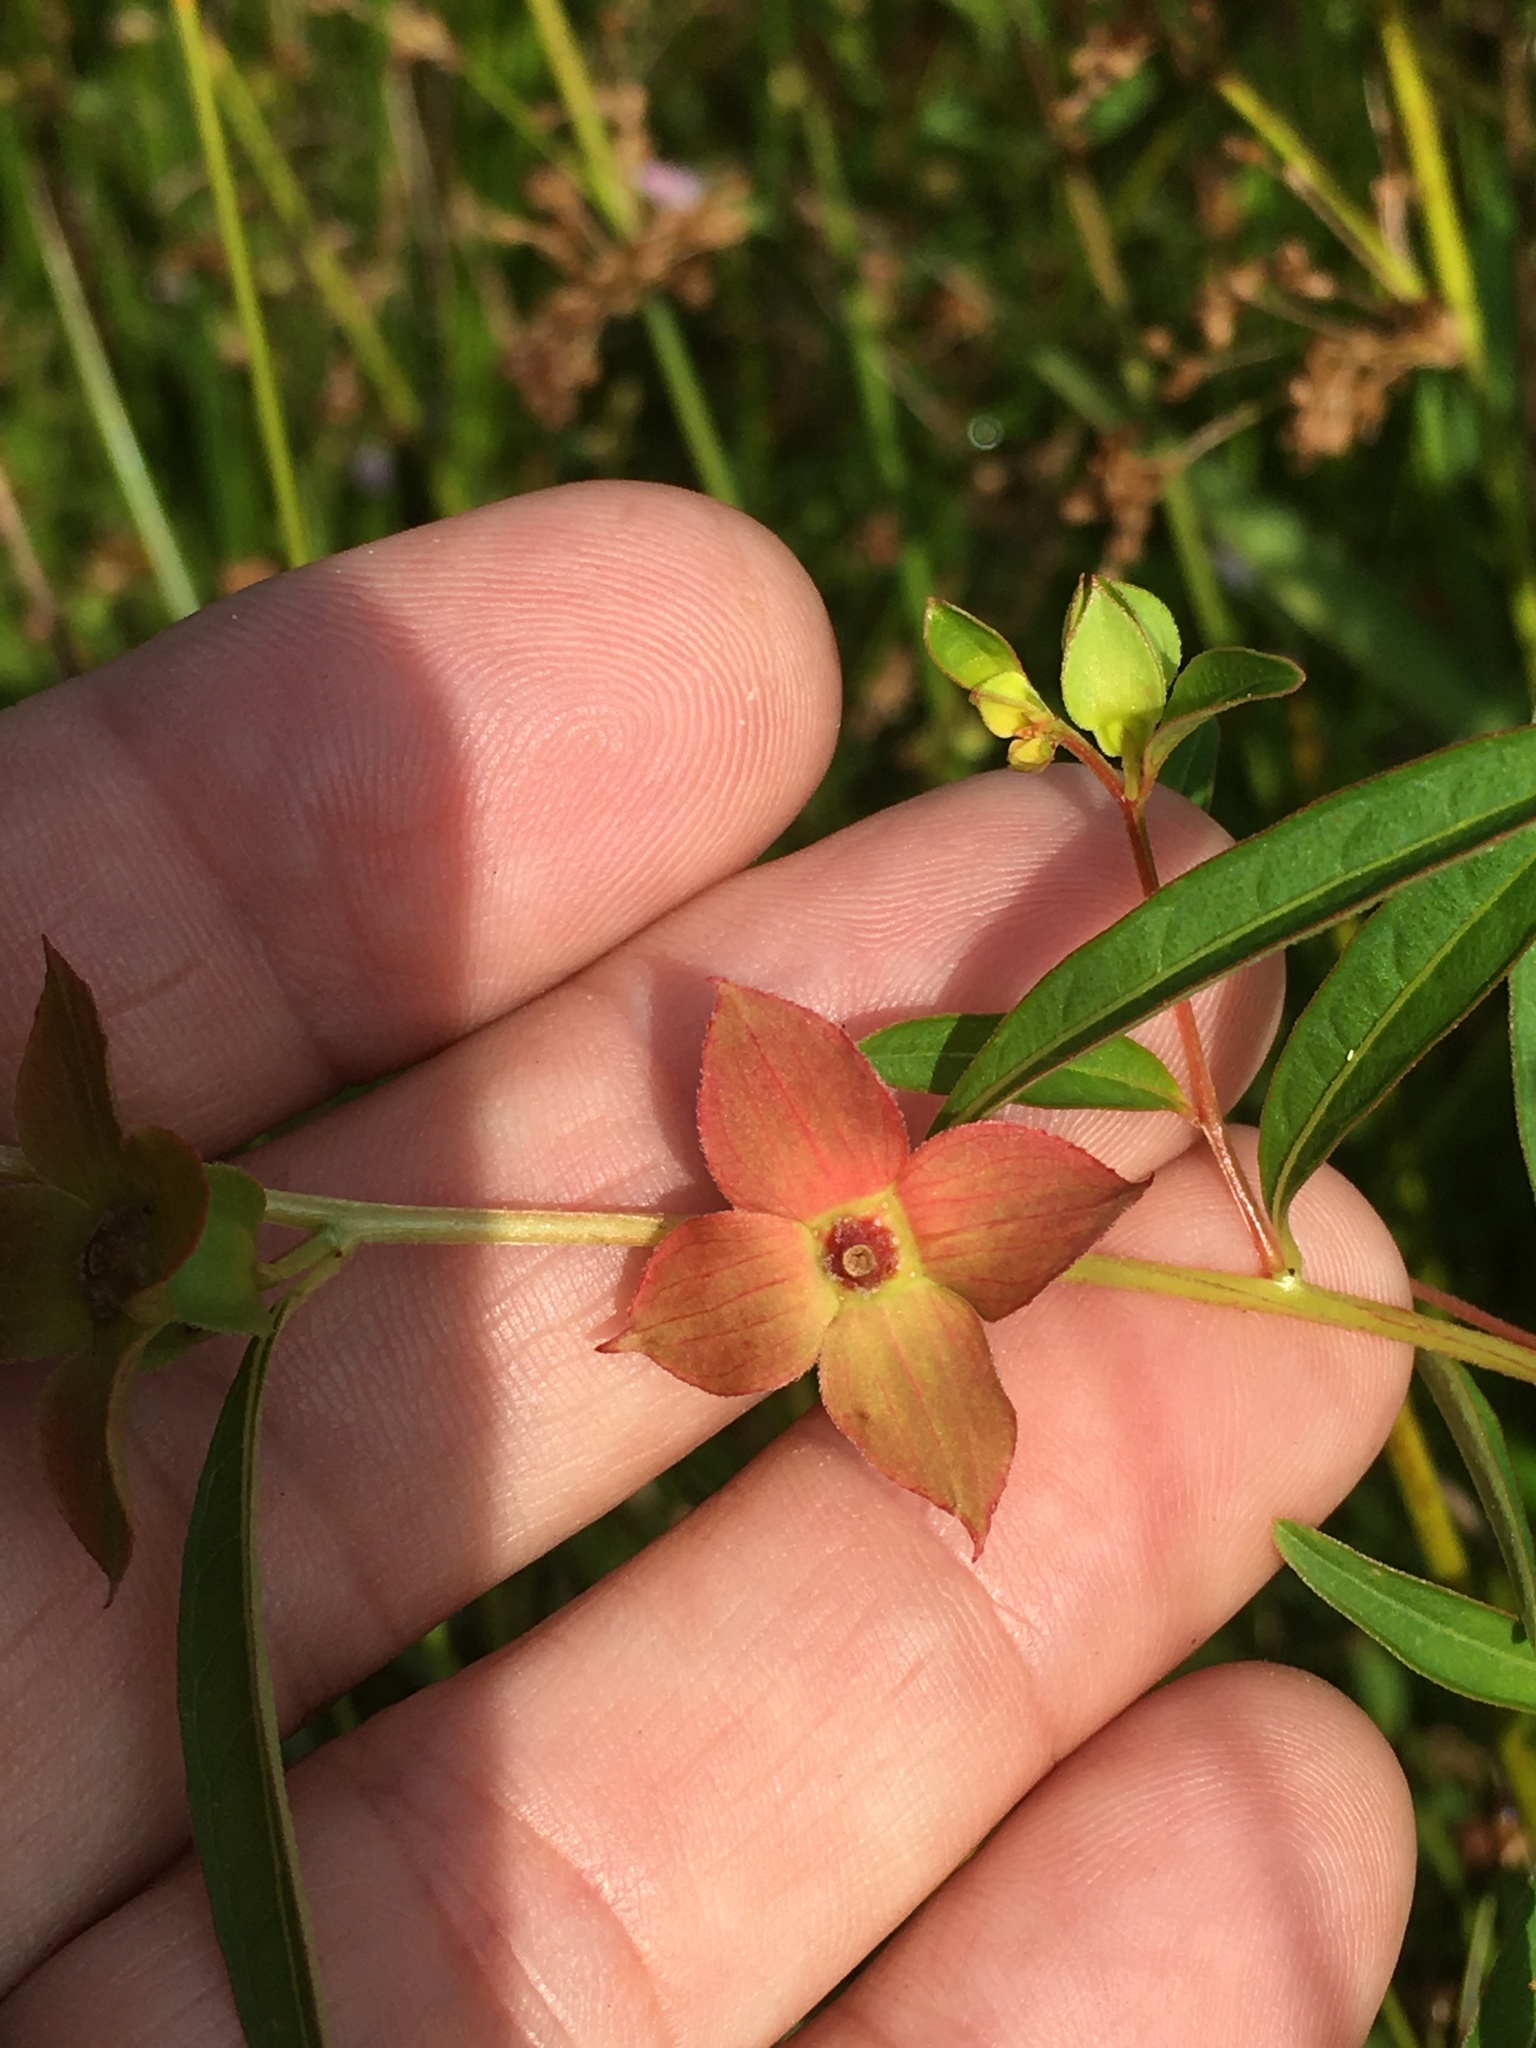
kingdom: Plantae
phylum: Tracheophyta
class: Magnoliopsida
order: Myrtales
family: Onagraceae
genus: Ludwigia
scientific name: Ludwigia alternifolia
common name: Rattlebox
